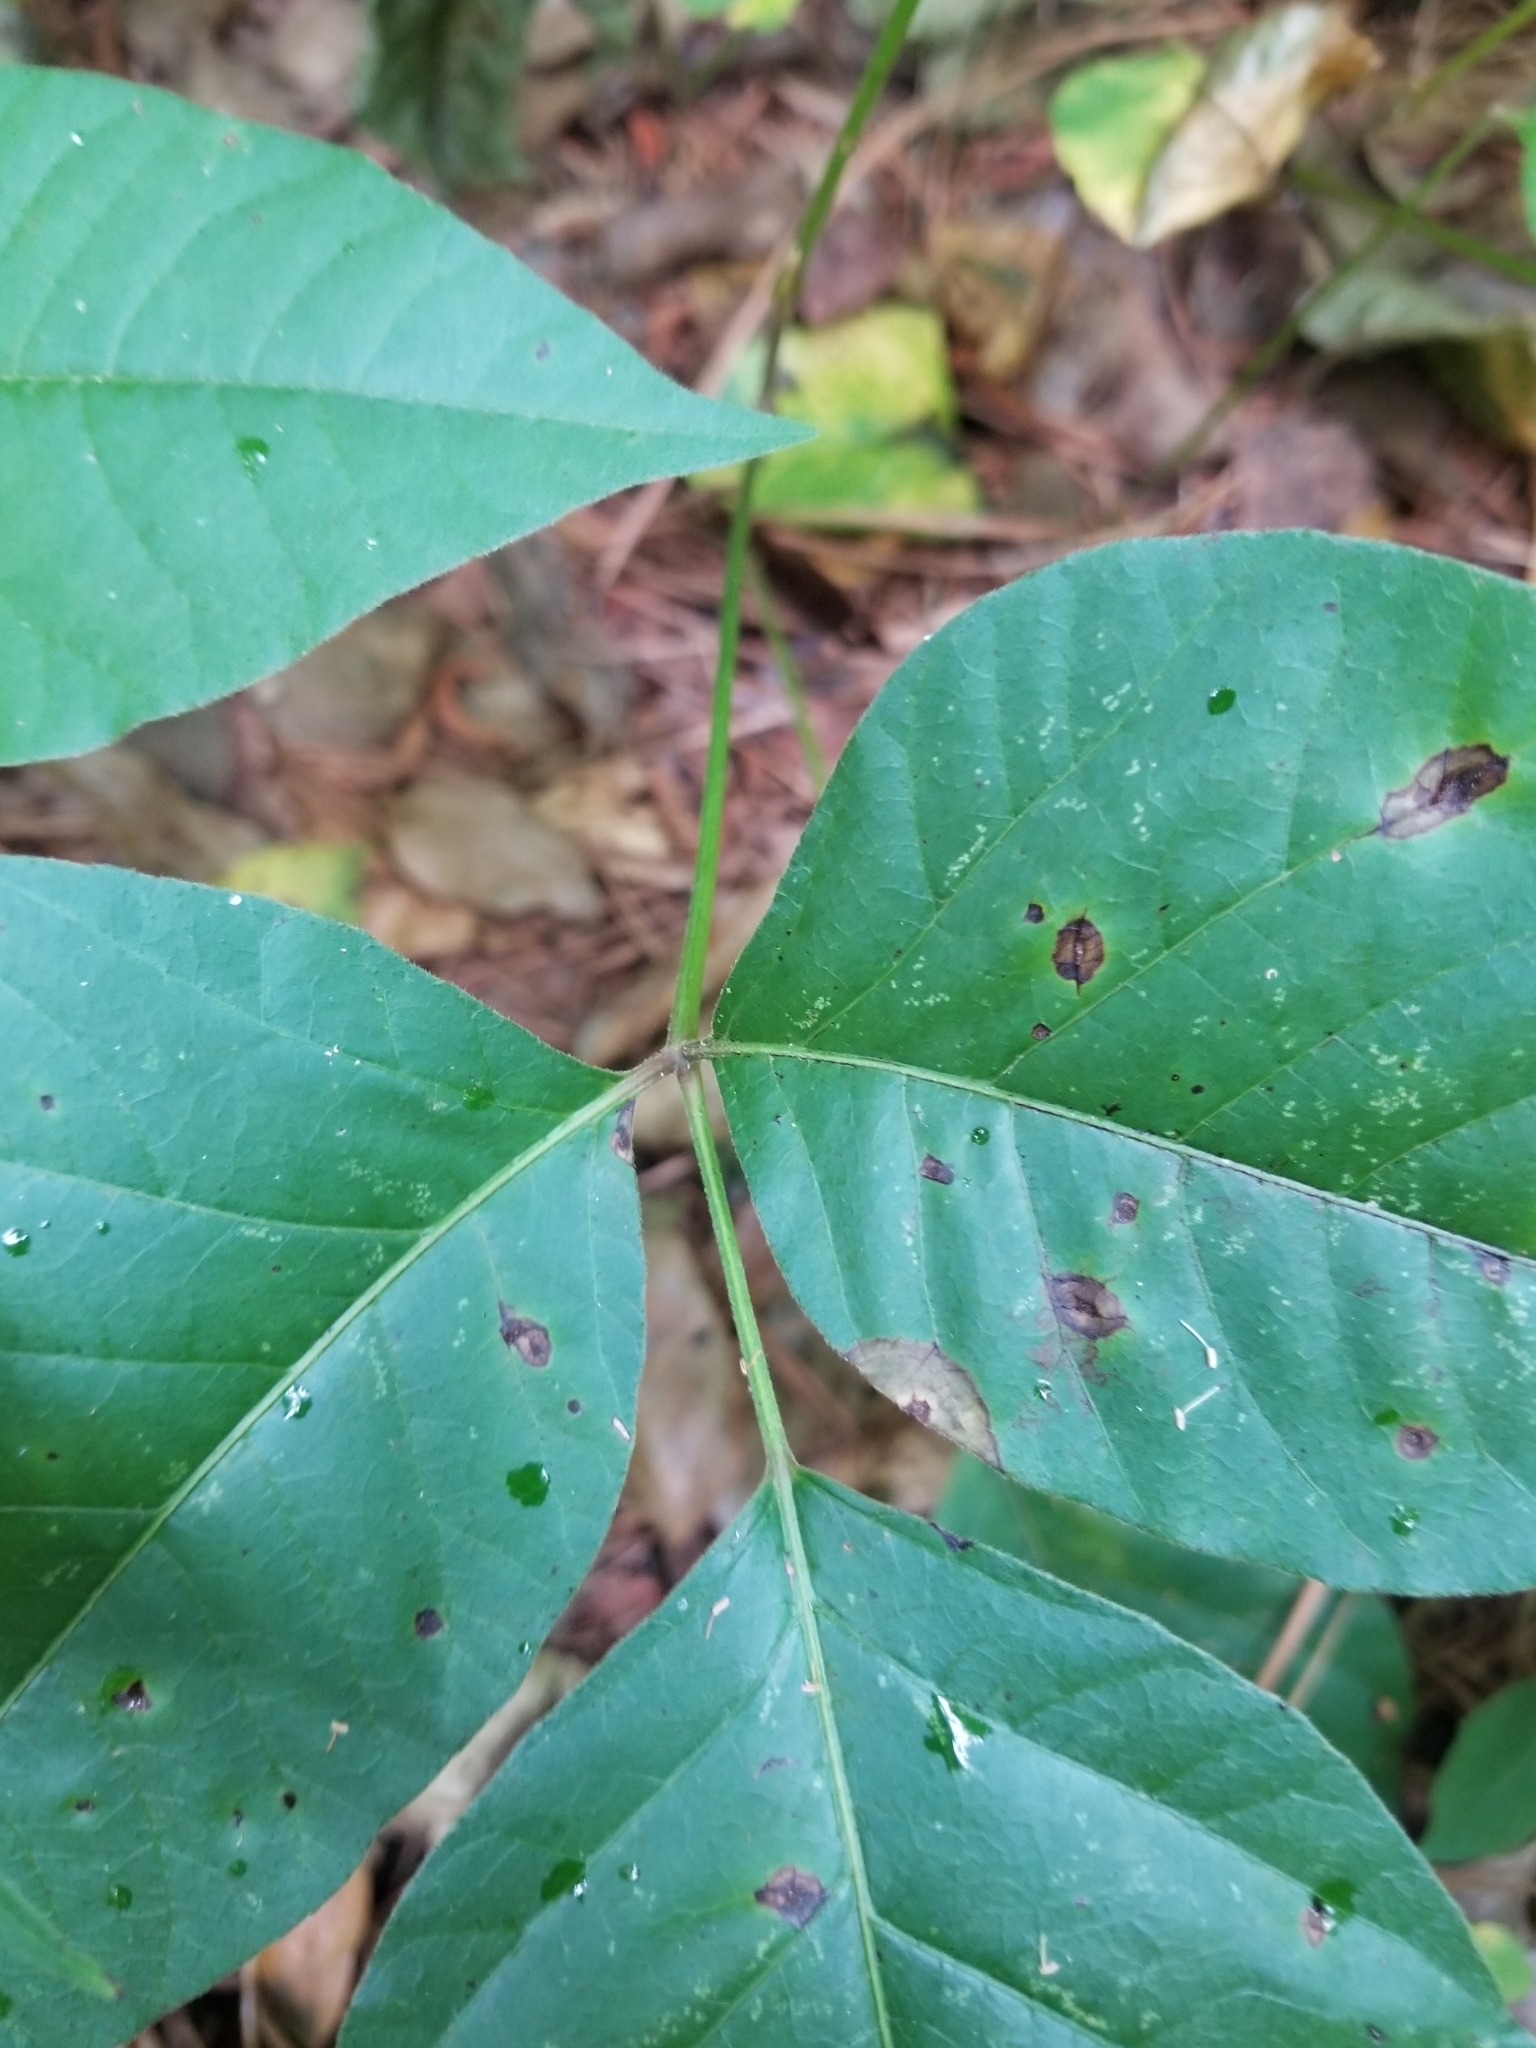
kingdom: Plantae
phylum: Tracheophyta
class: Magnoliopsida
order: Sapindales
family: Anacardiaceae
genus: Toxicodendron
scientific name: Toxicodendron radicans
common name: Poison ivy
